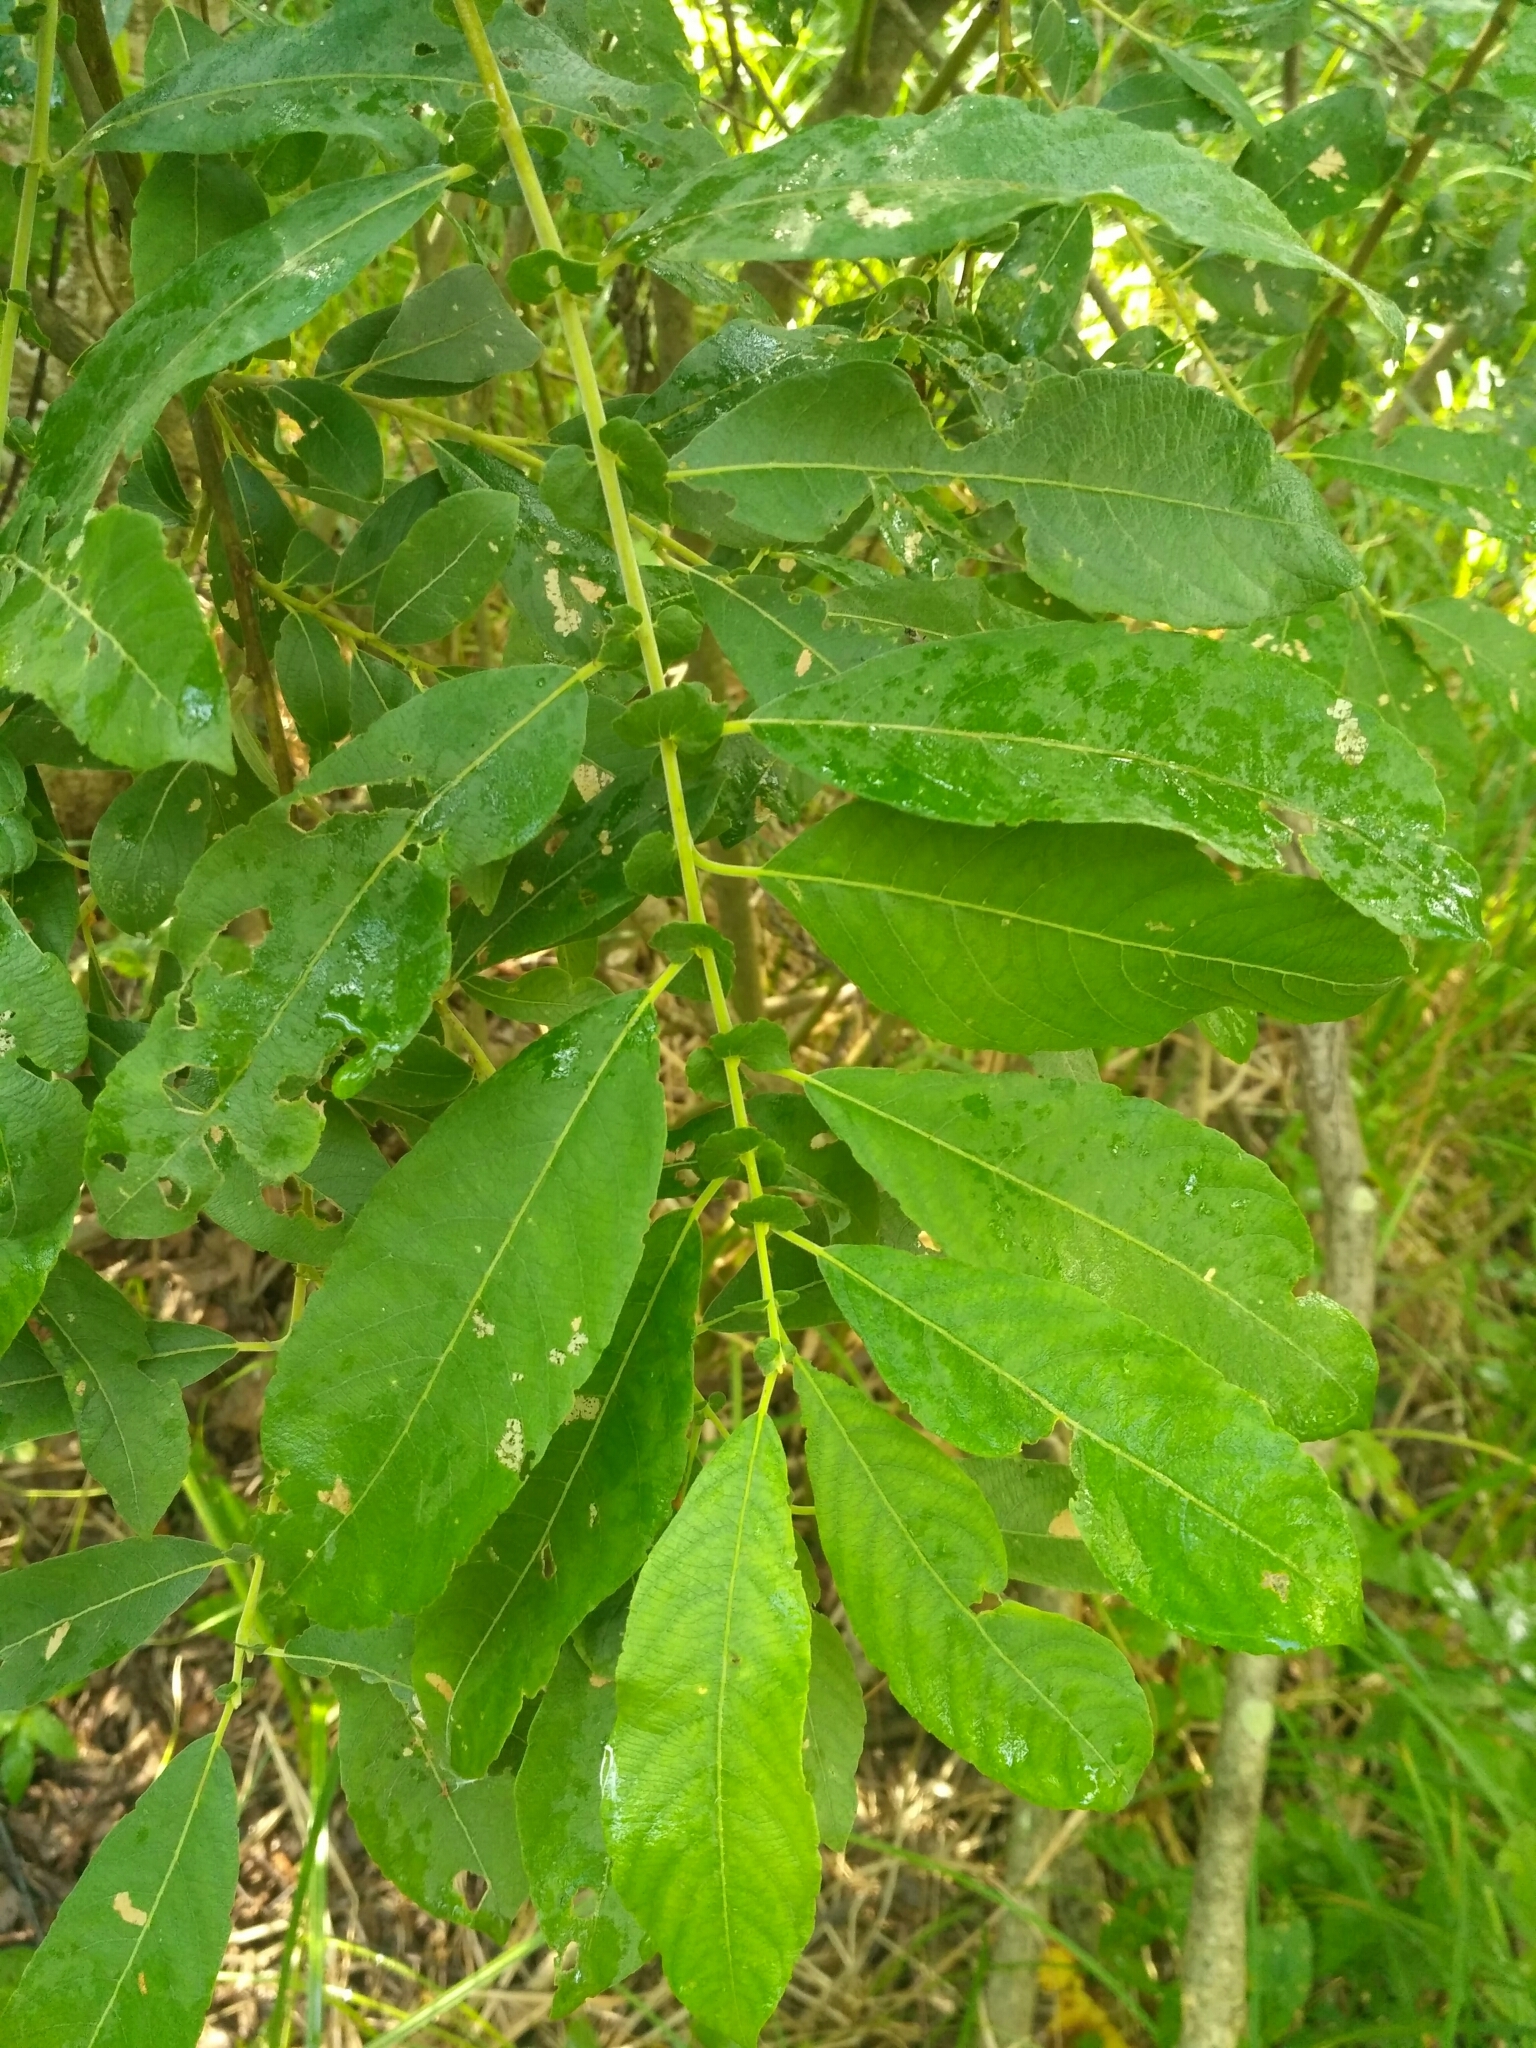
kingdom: Plantae
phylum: Tracheophyta
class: Magnoliopsida
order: Malpighiales
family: Salicaceae
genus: Salix
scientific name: Salix caprea
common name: Goat willow
